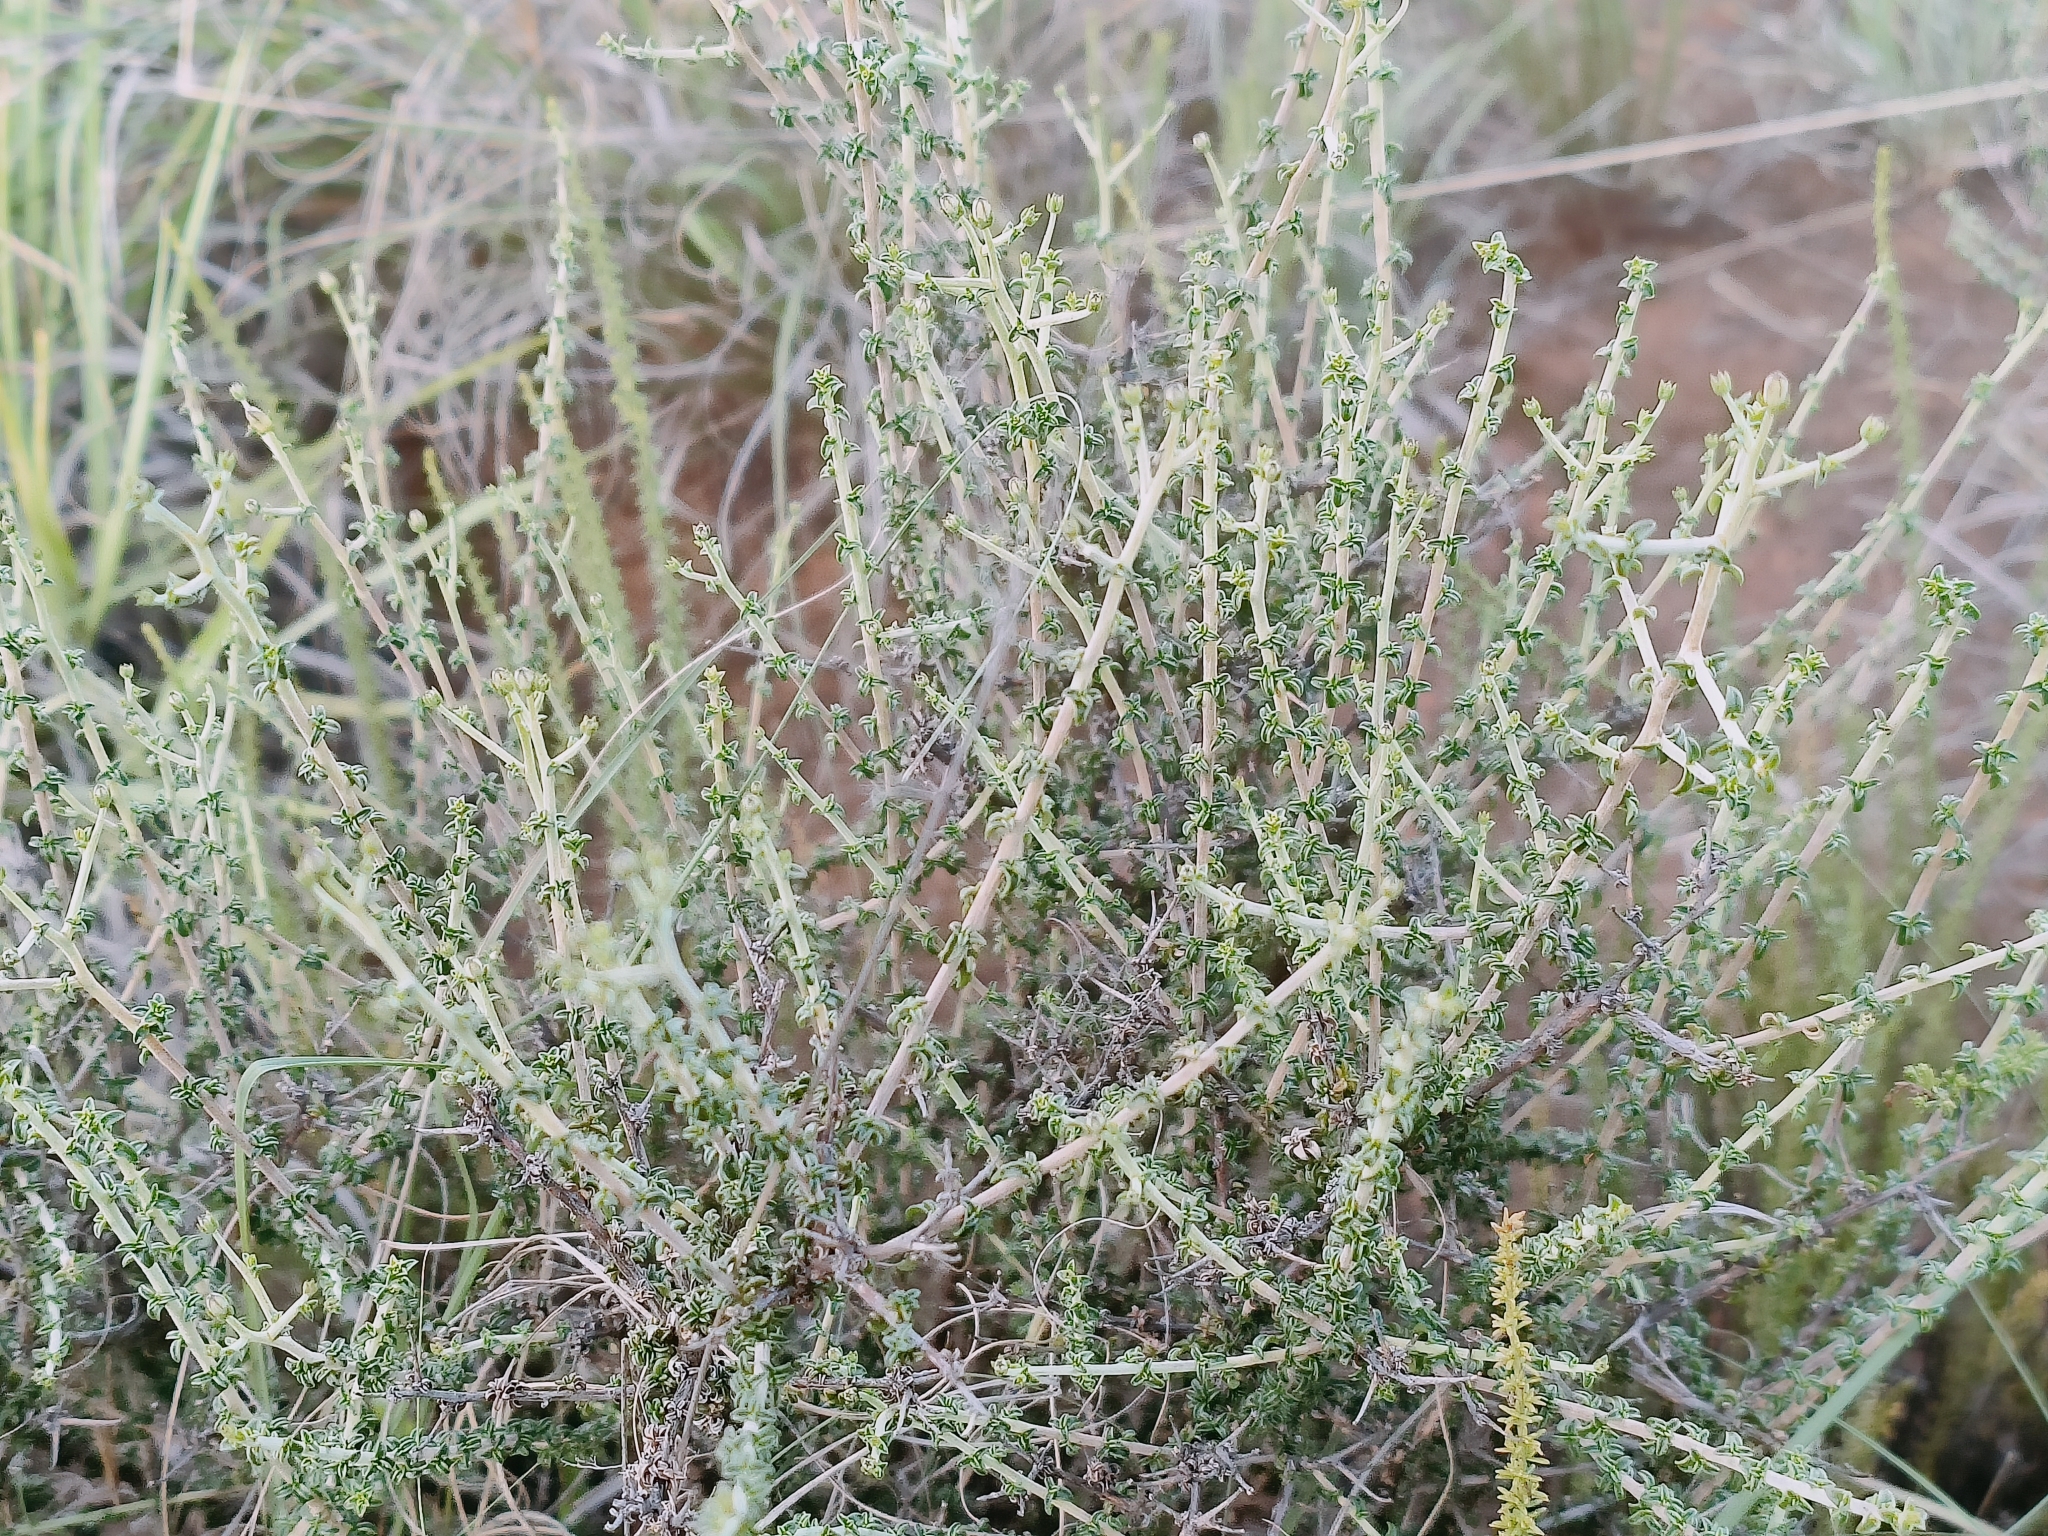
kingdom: Plantae
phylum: Tracheophyta
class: Magnoliopsida
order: Asterales
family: Campanulaceae
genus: Wahlenbergia
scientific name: Wahlenbergia albens
